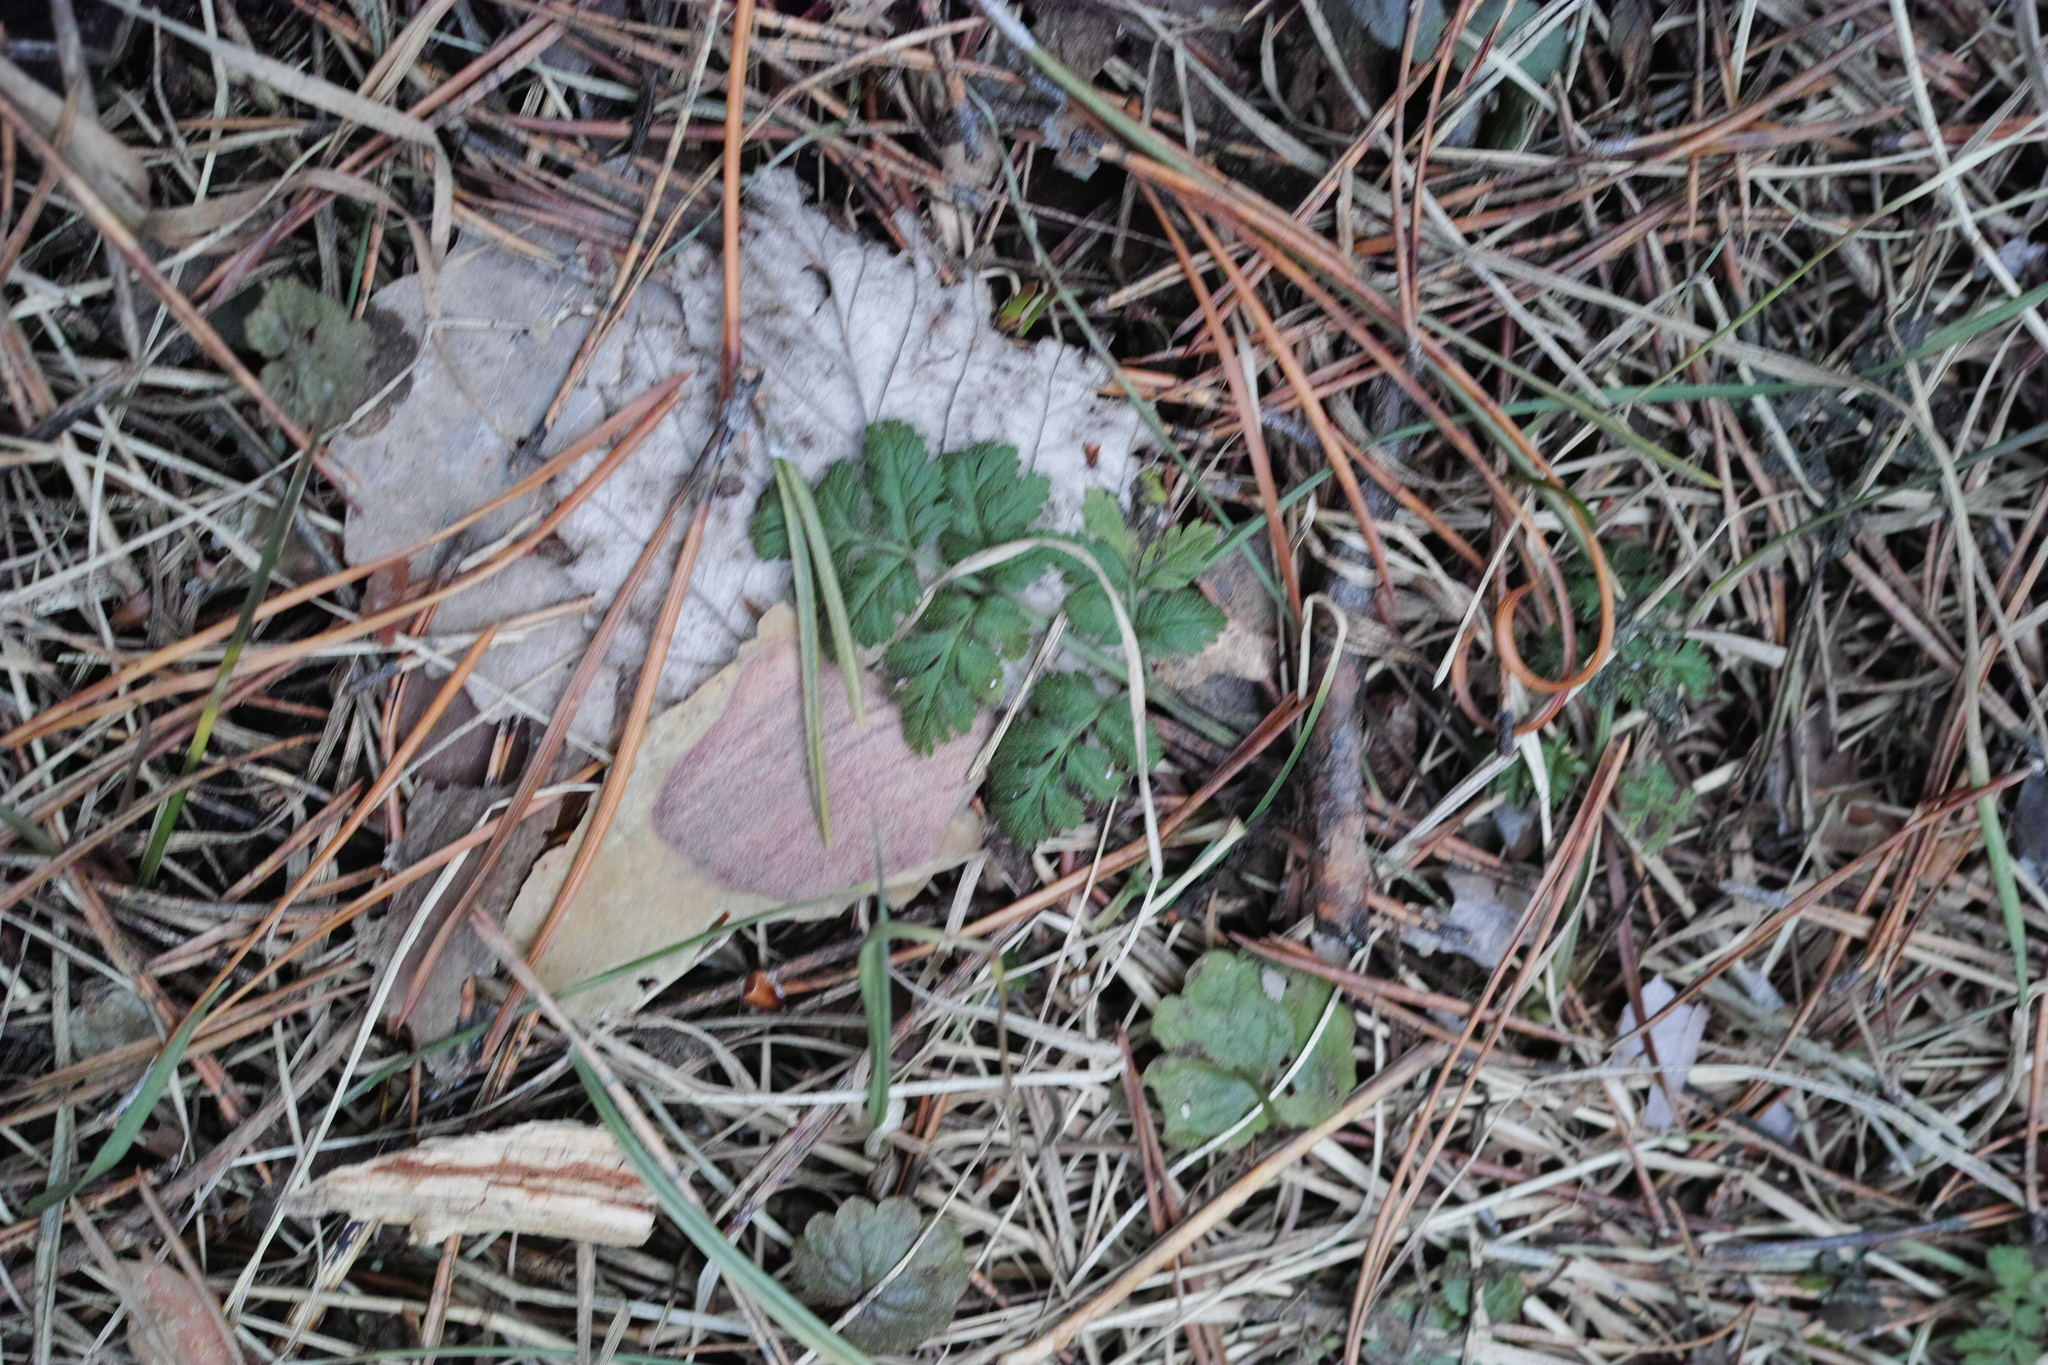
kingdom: Plantae
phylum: Tracheophyta
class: Magnoliopsida
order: Apiales
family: Apiaceae
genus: Anthriscus
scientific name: Anthriscus sylvestris
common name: Cow parsley
